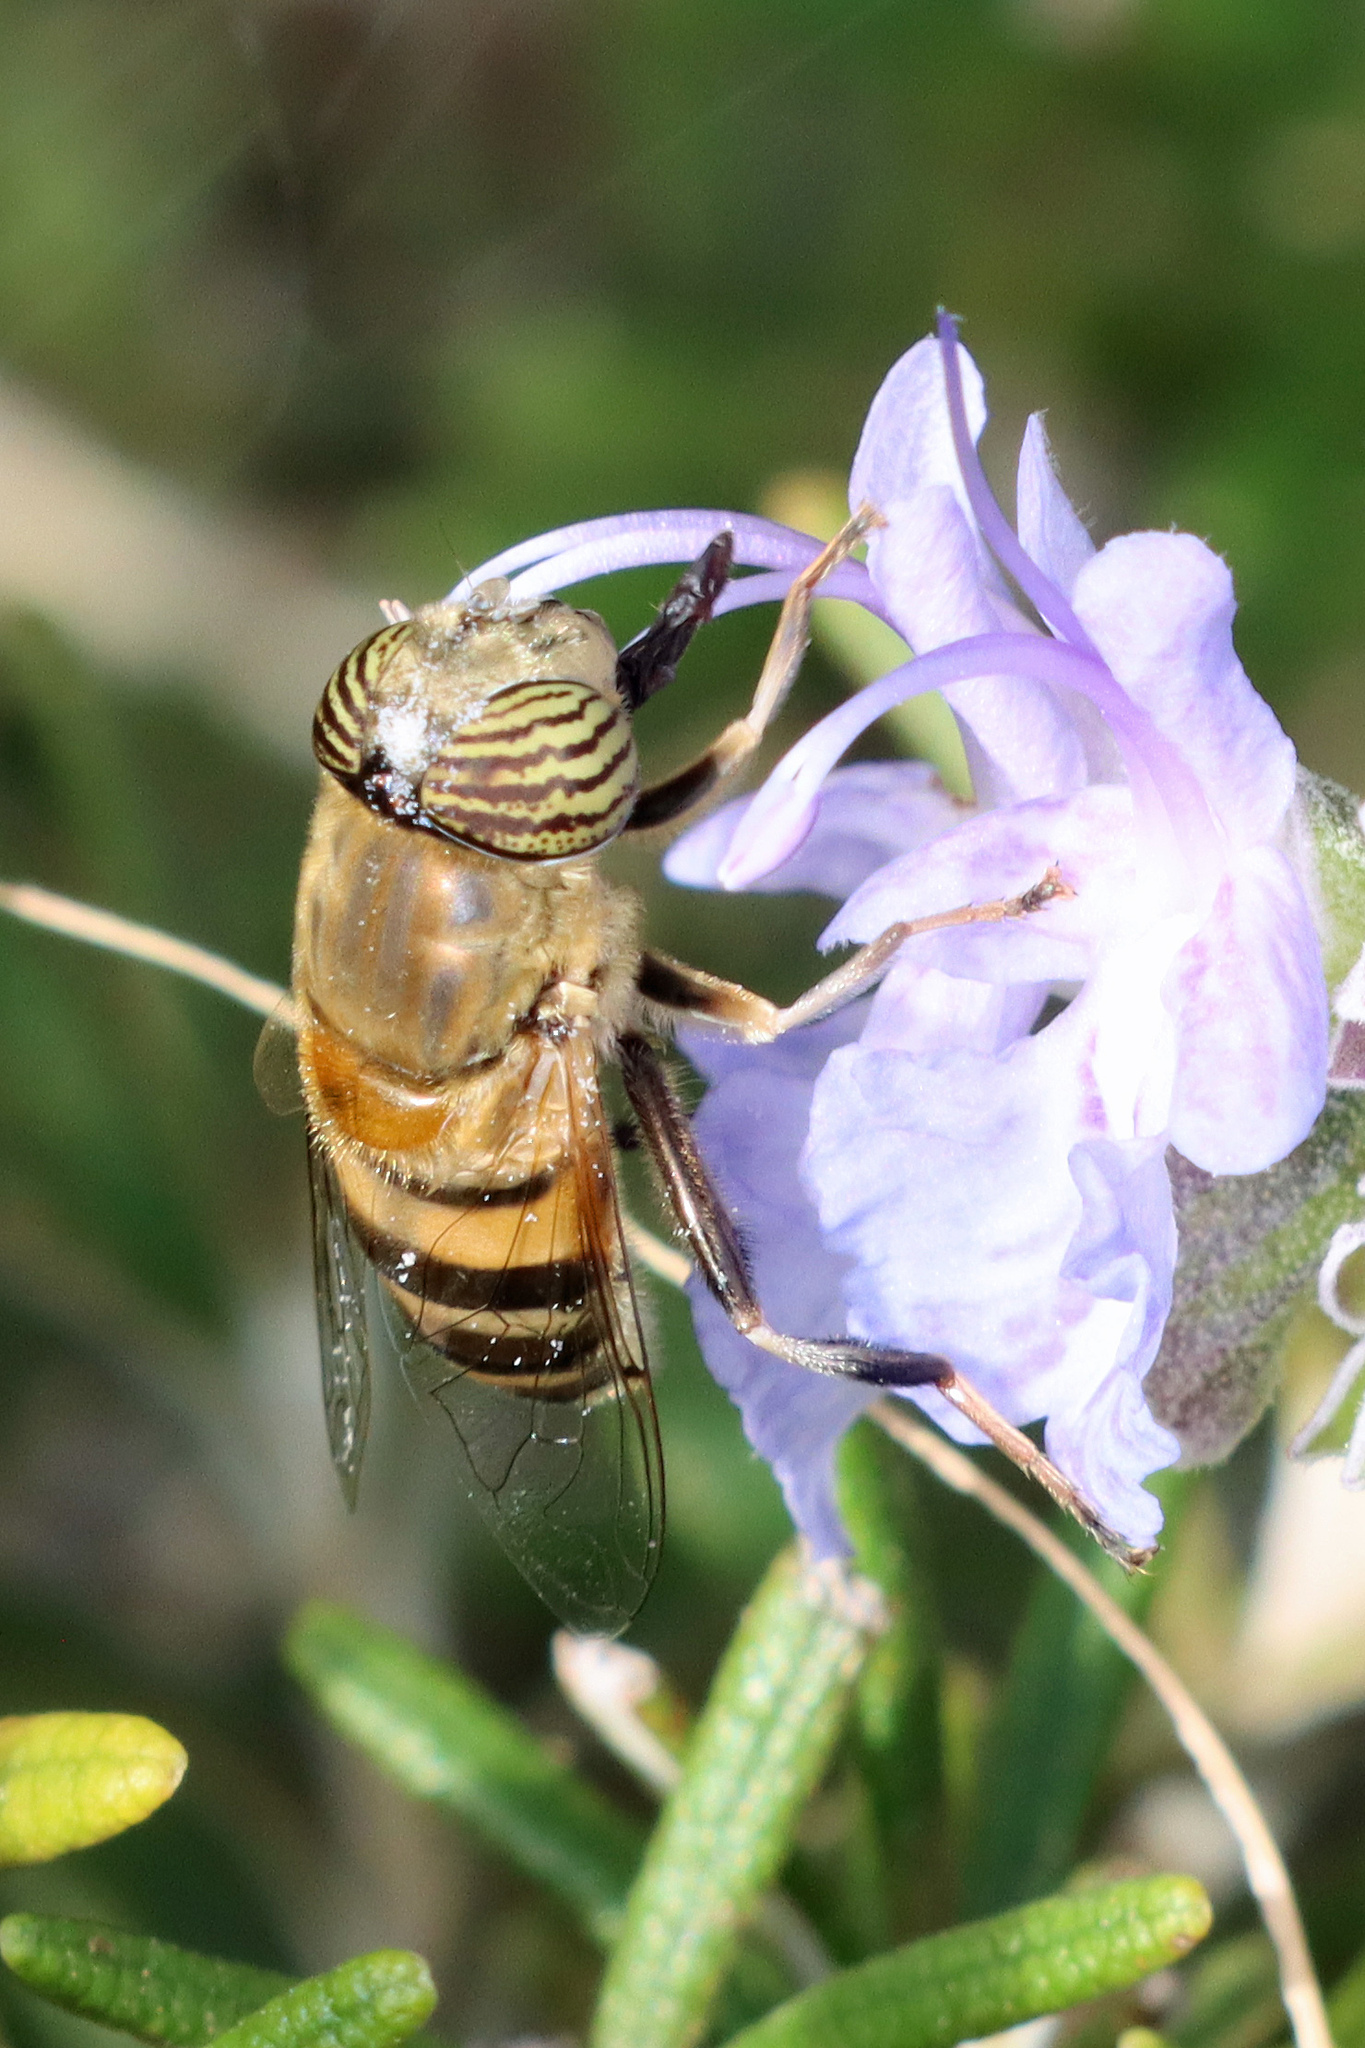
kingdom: Animalia
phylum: Arthropoda
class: Insecta
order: Diptera
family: Syrphidae
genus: Eristalinus
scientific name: Eristalinus taeniops
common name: Syrphid fly
